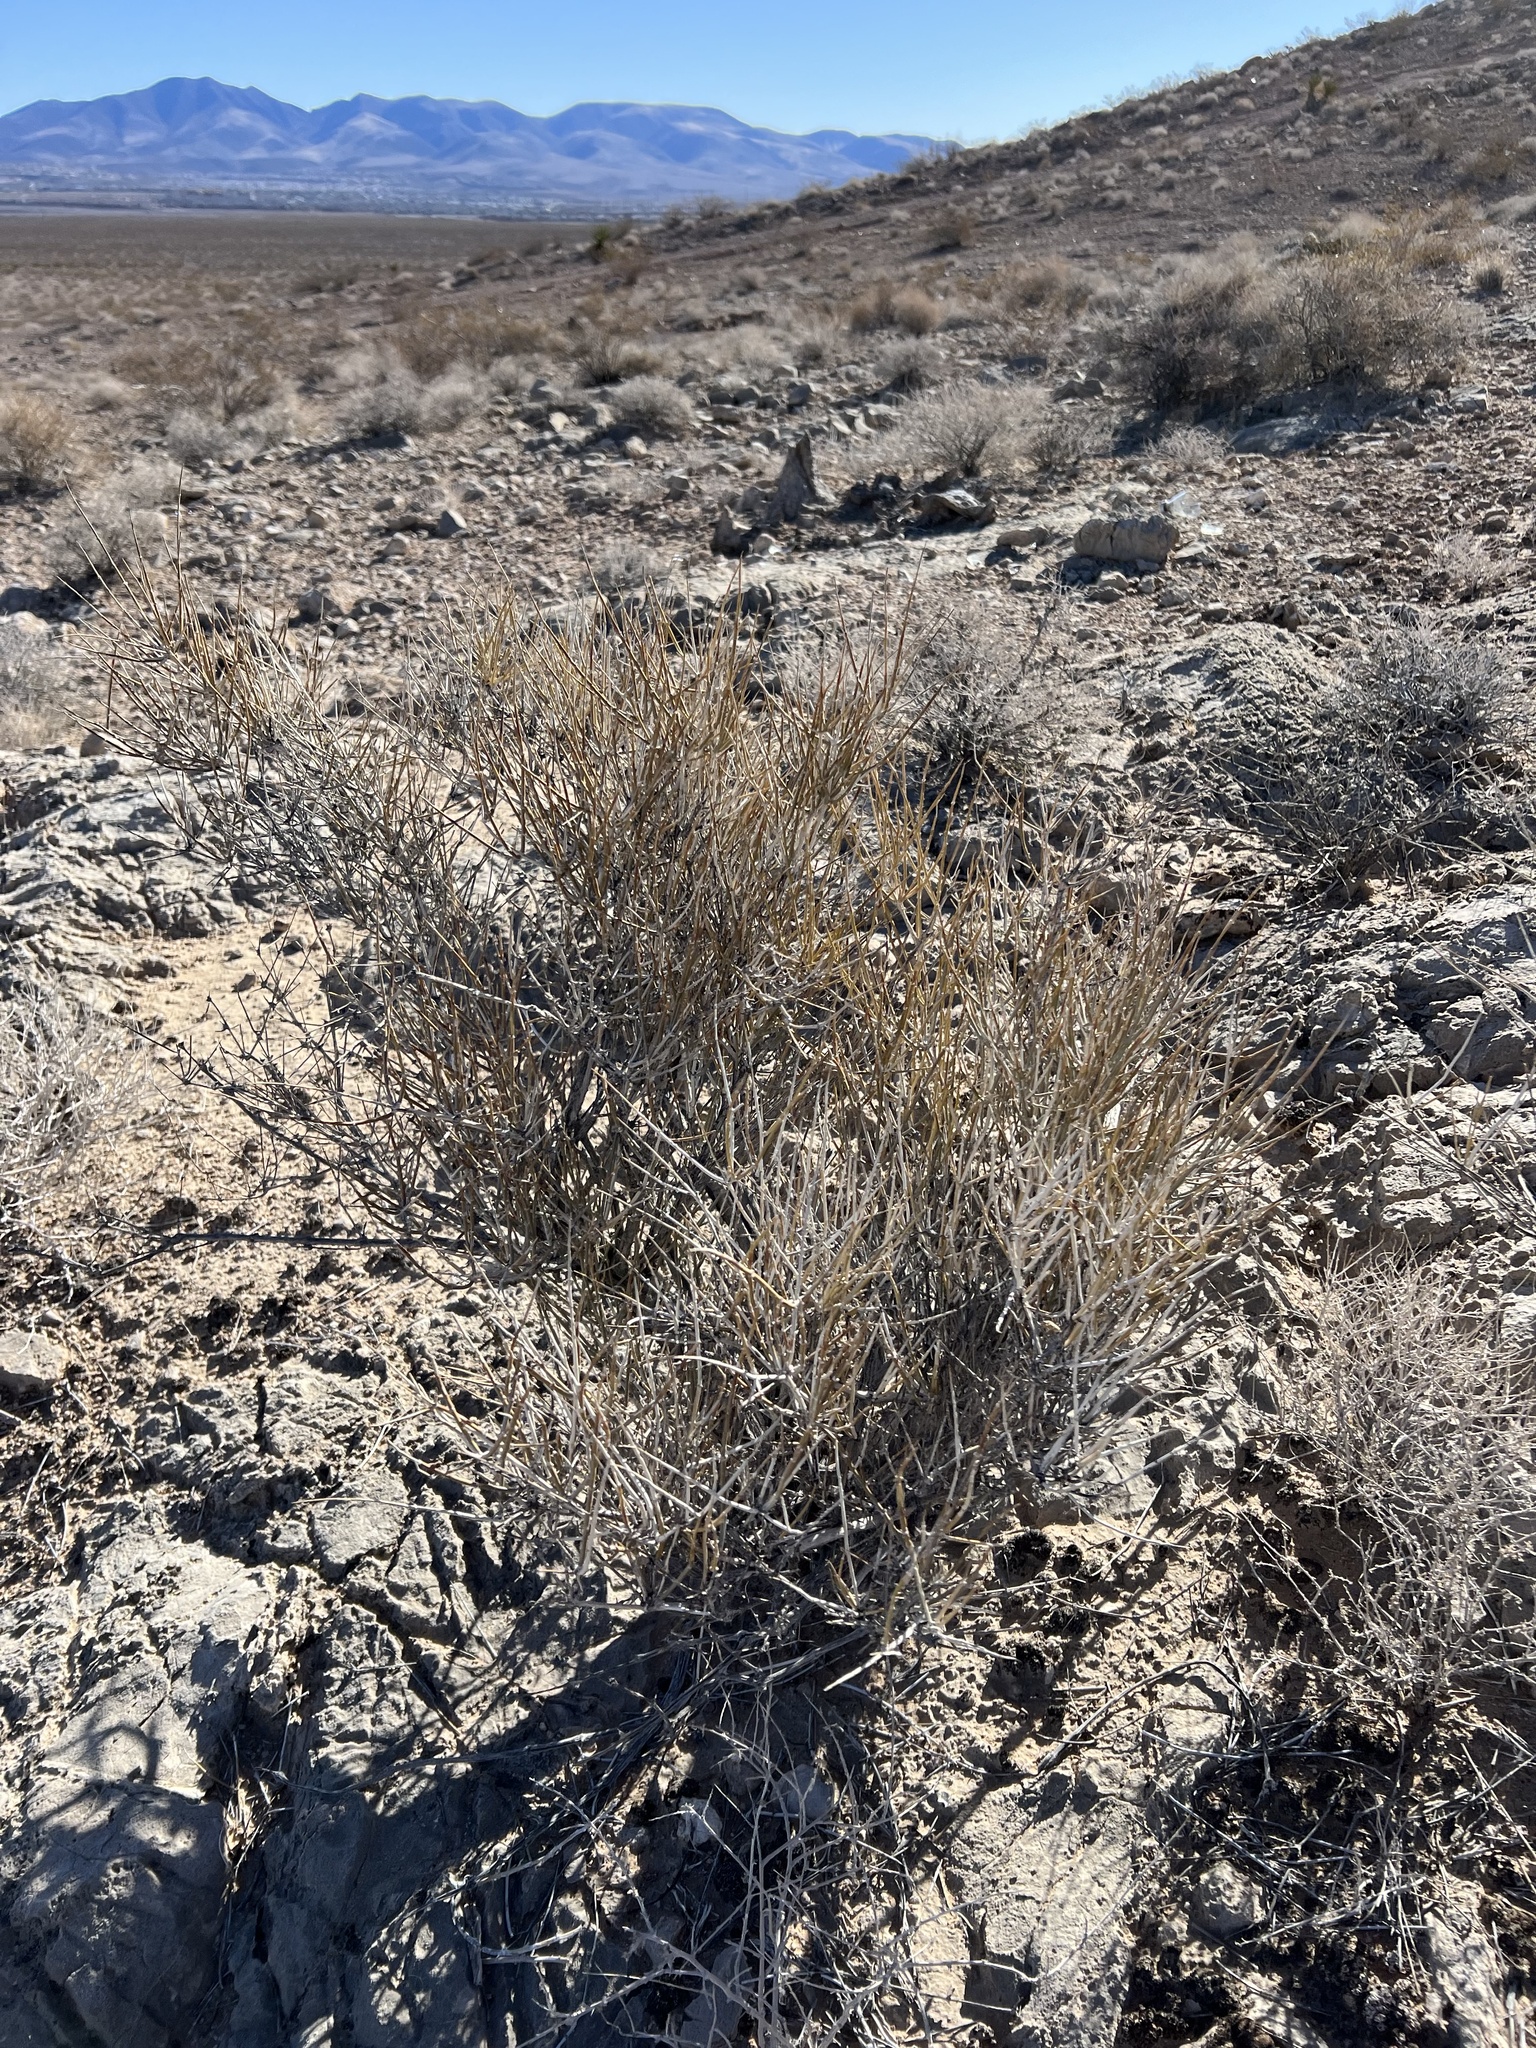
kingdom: Plantae
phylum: Tracheophyta
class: Gnetopsida
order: Ephedrales
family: Ephedraceae
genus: Ephedra
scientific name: Ephedra nevadensis
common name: Gray ephedra
